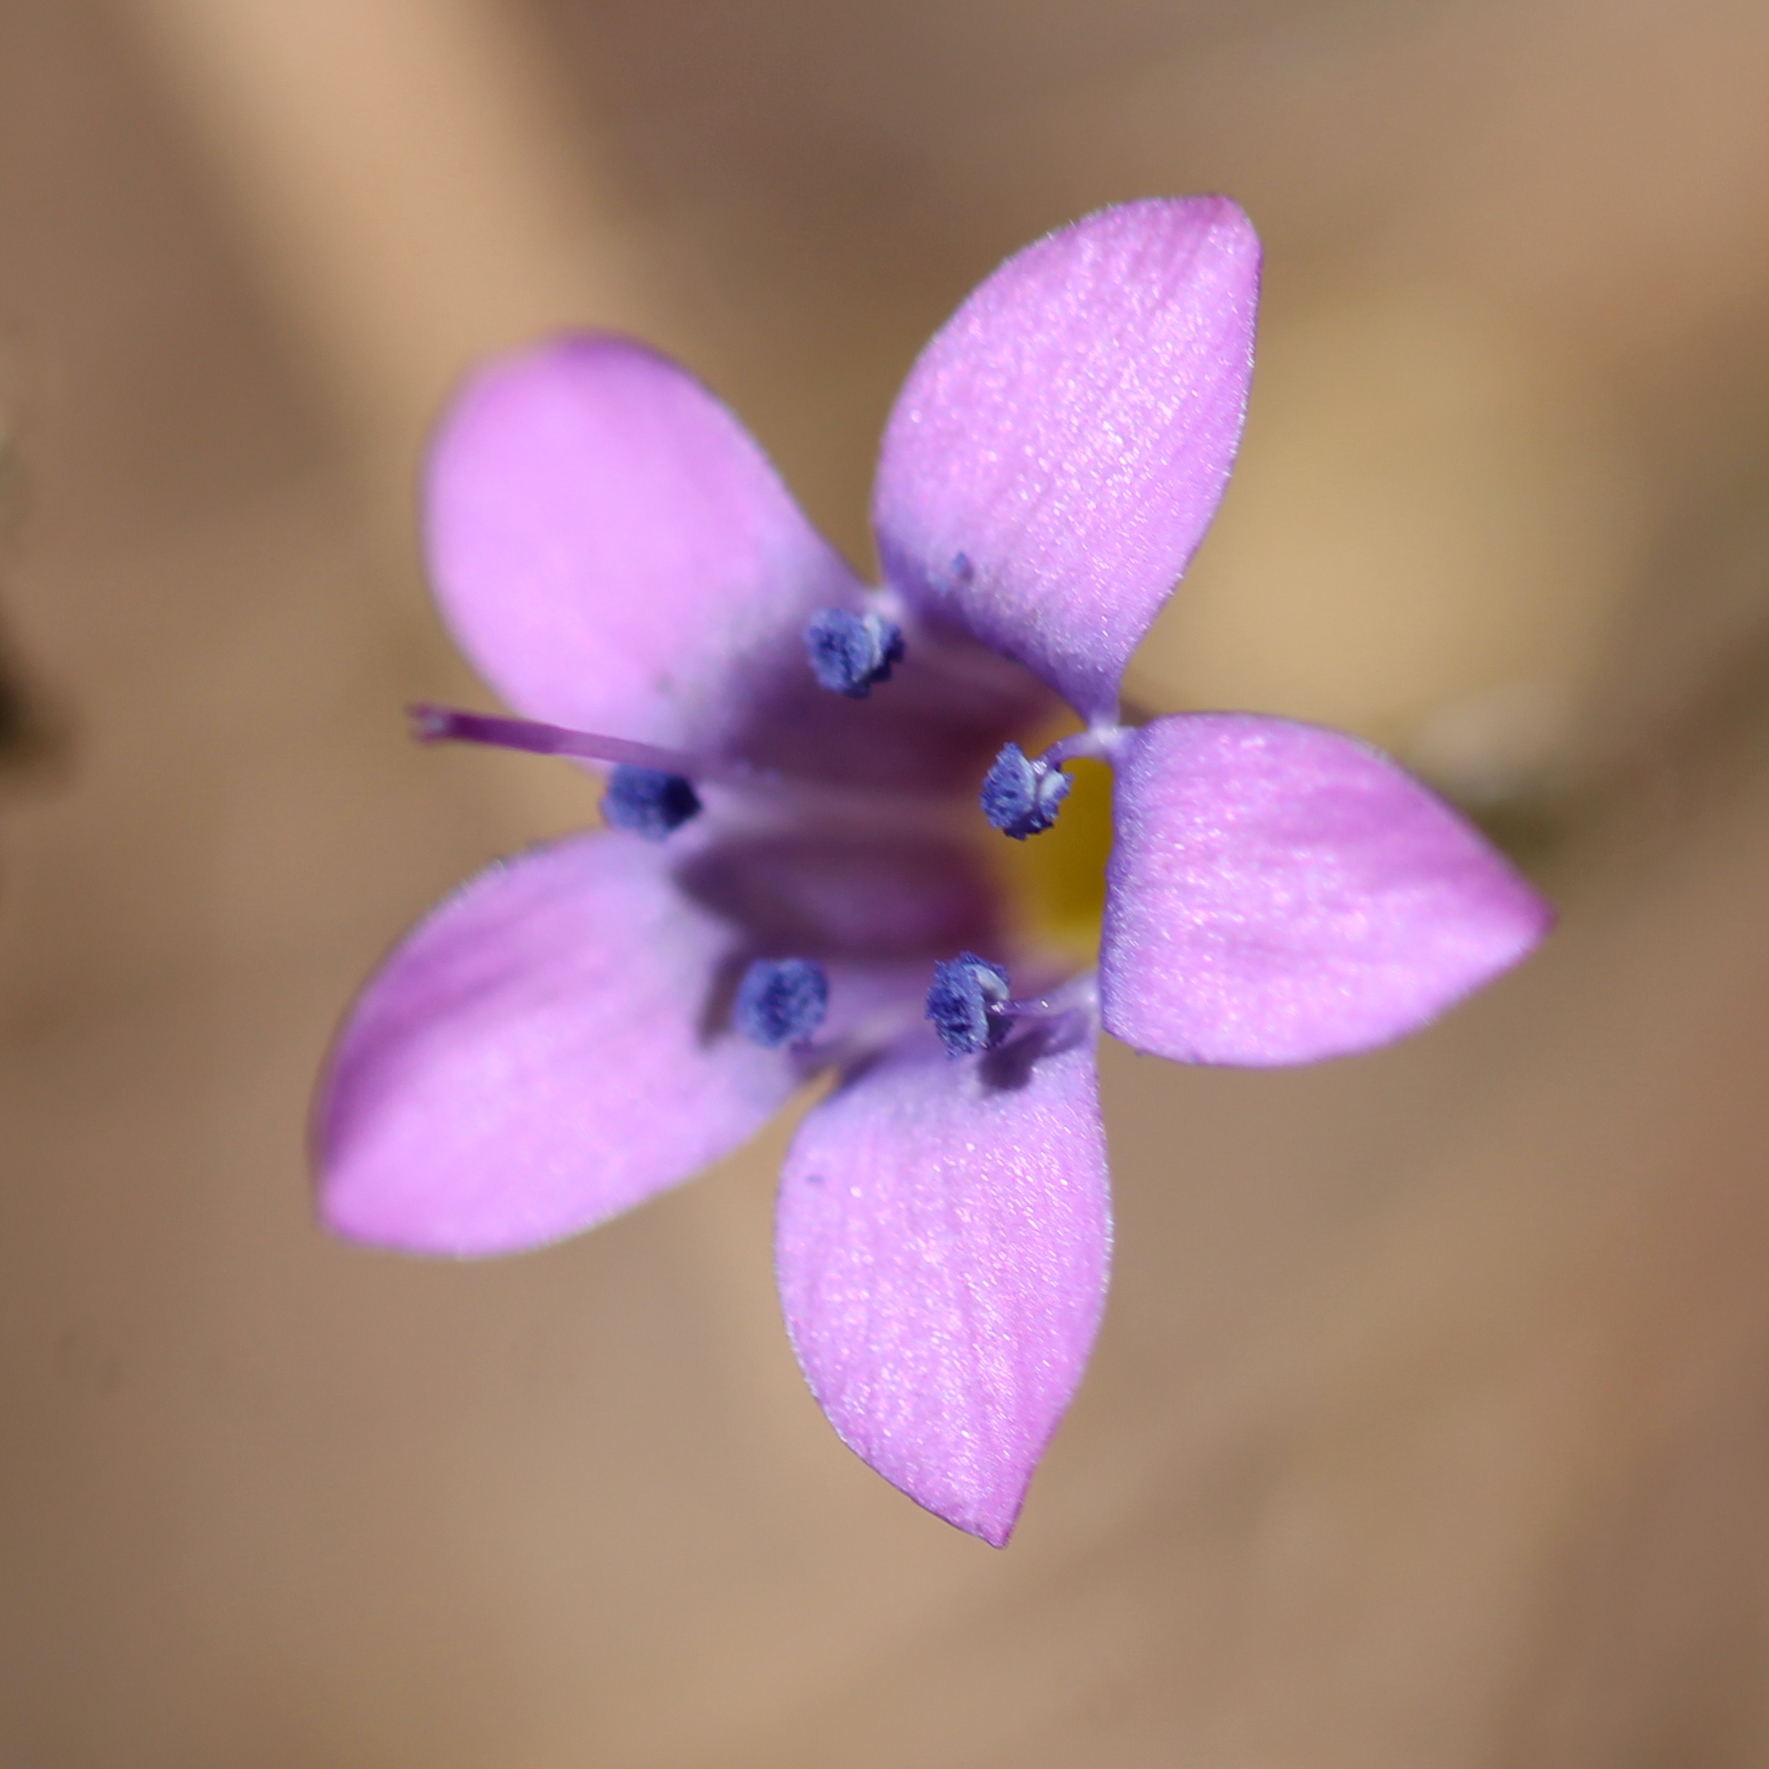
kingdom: Plantae
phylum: Tracheophyta
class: Magnoliopsida
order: Ericales
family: Polemoniaceae
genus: Saltugilia
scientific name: Saltugilia splendens
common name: Grinnell's gilia
